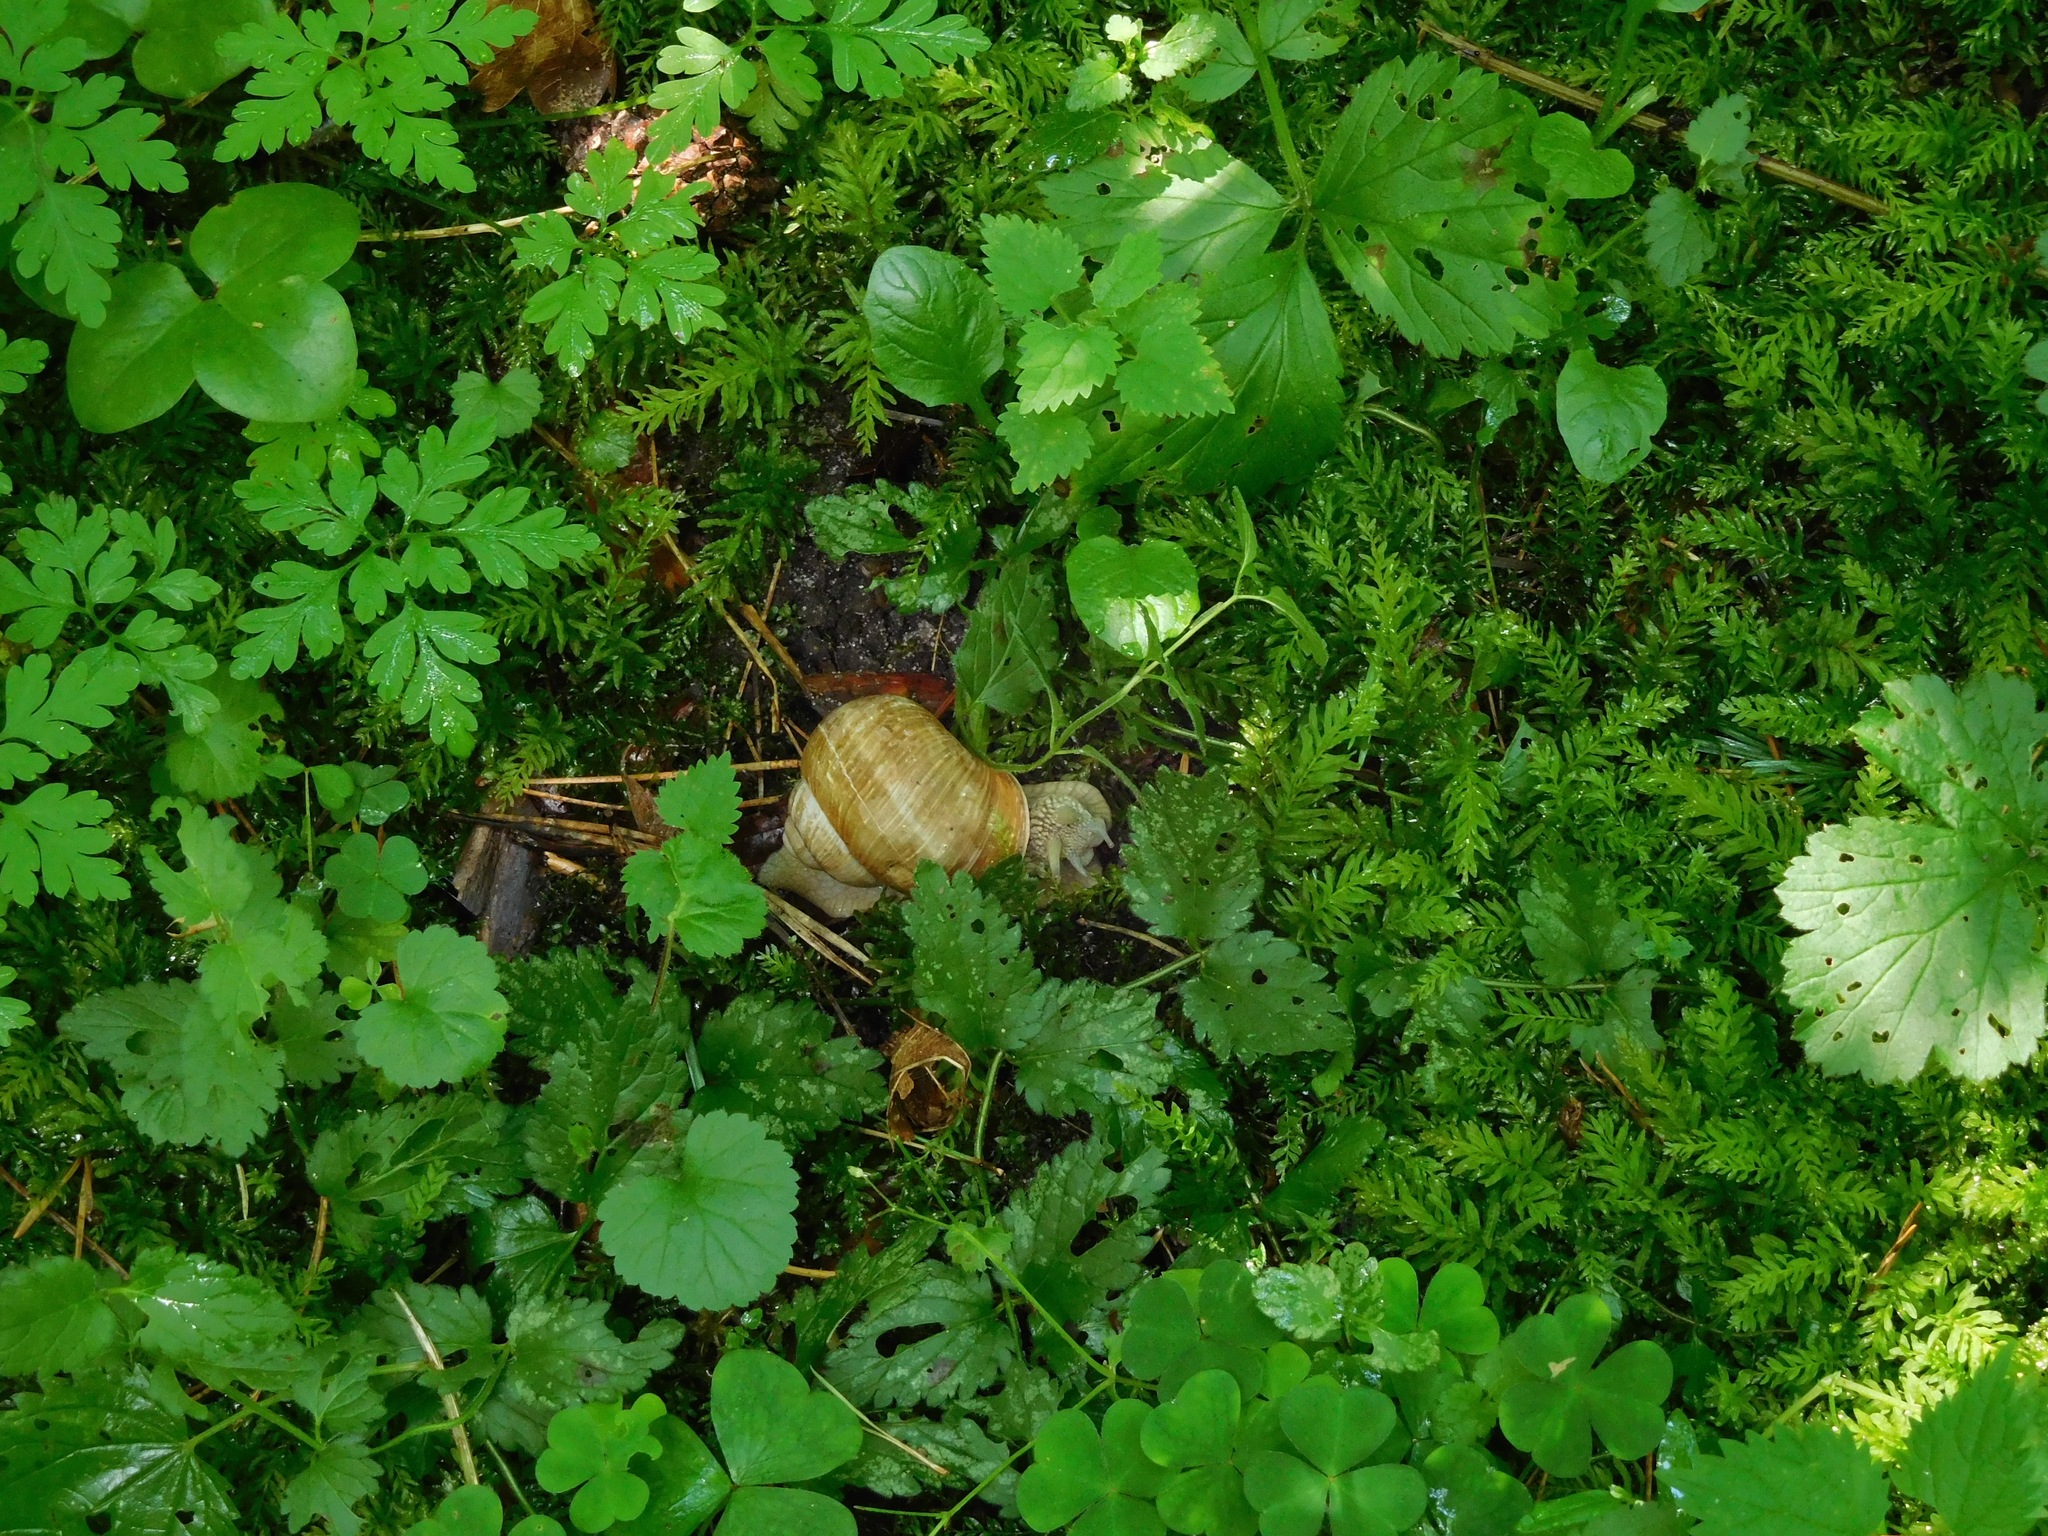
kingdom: Animalia
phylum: Mollusca
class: Gastropoda
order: Stylommatophora
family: Helicidae
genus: Helix
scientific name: Helix pomatia
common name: Roman snail
